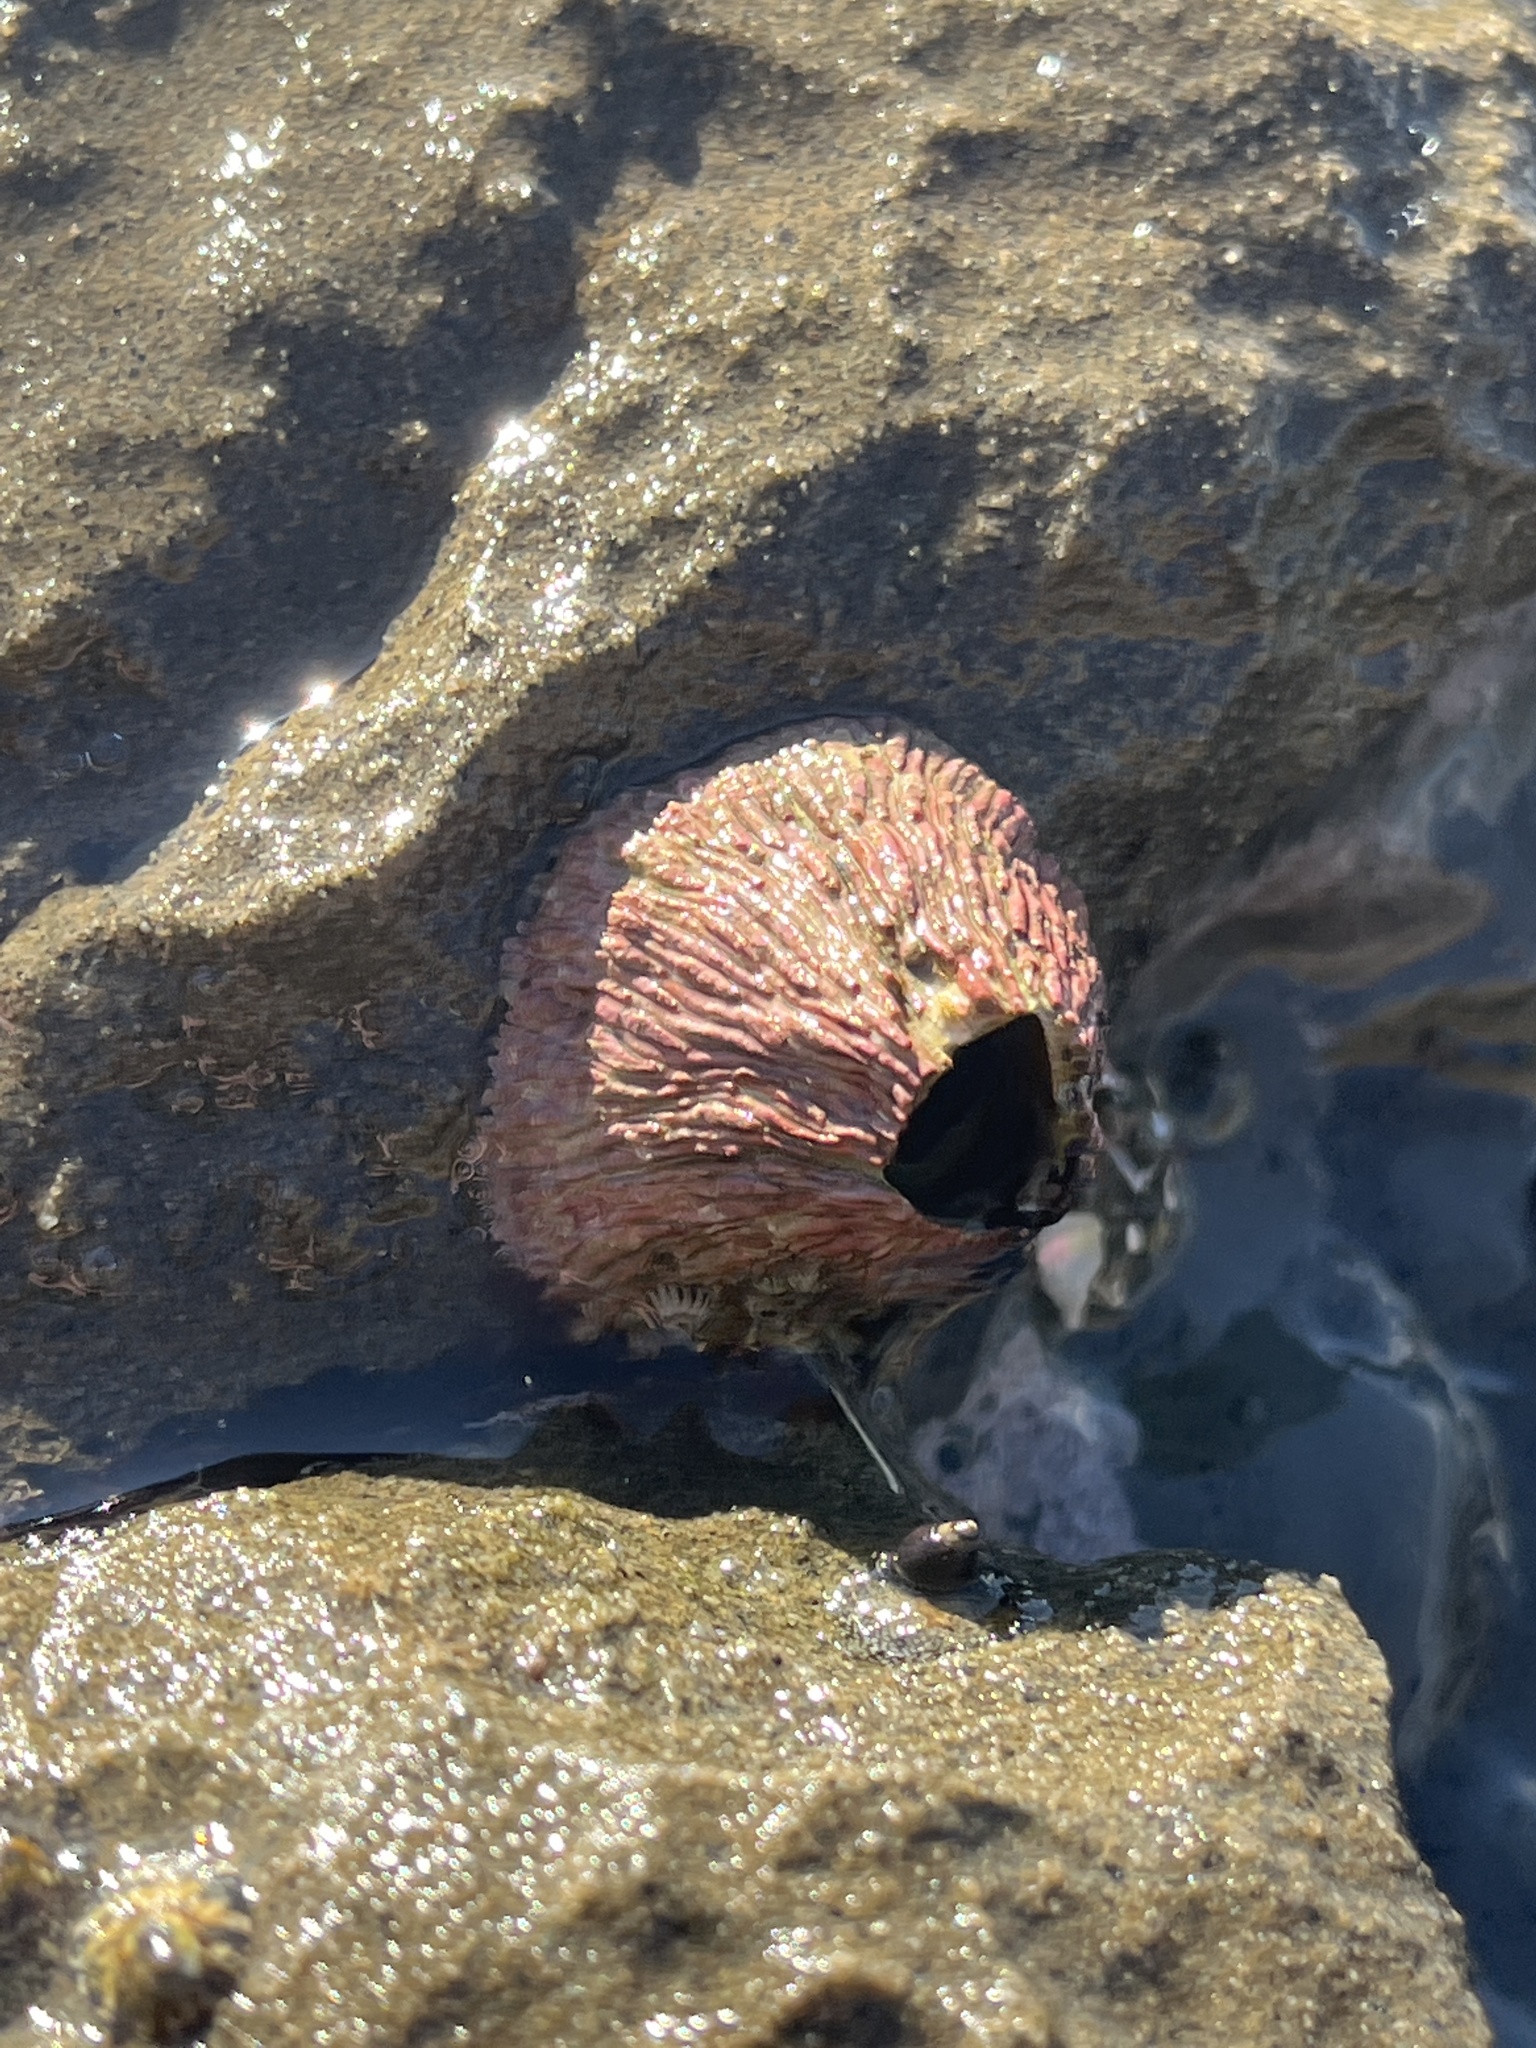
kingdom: Animalia
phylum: Arthropoda
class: Maxillopoda
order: Sessilia
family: Tetraclitidae
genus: Tetraclita
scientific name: Tetraclita rubescens
